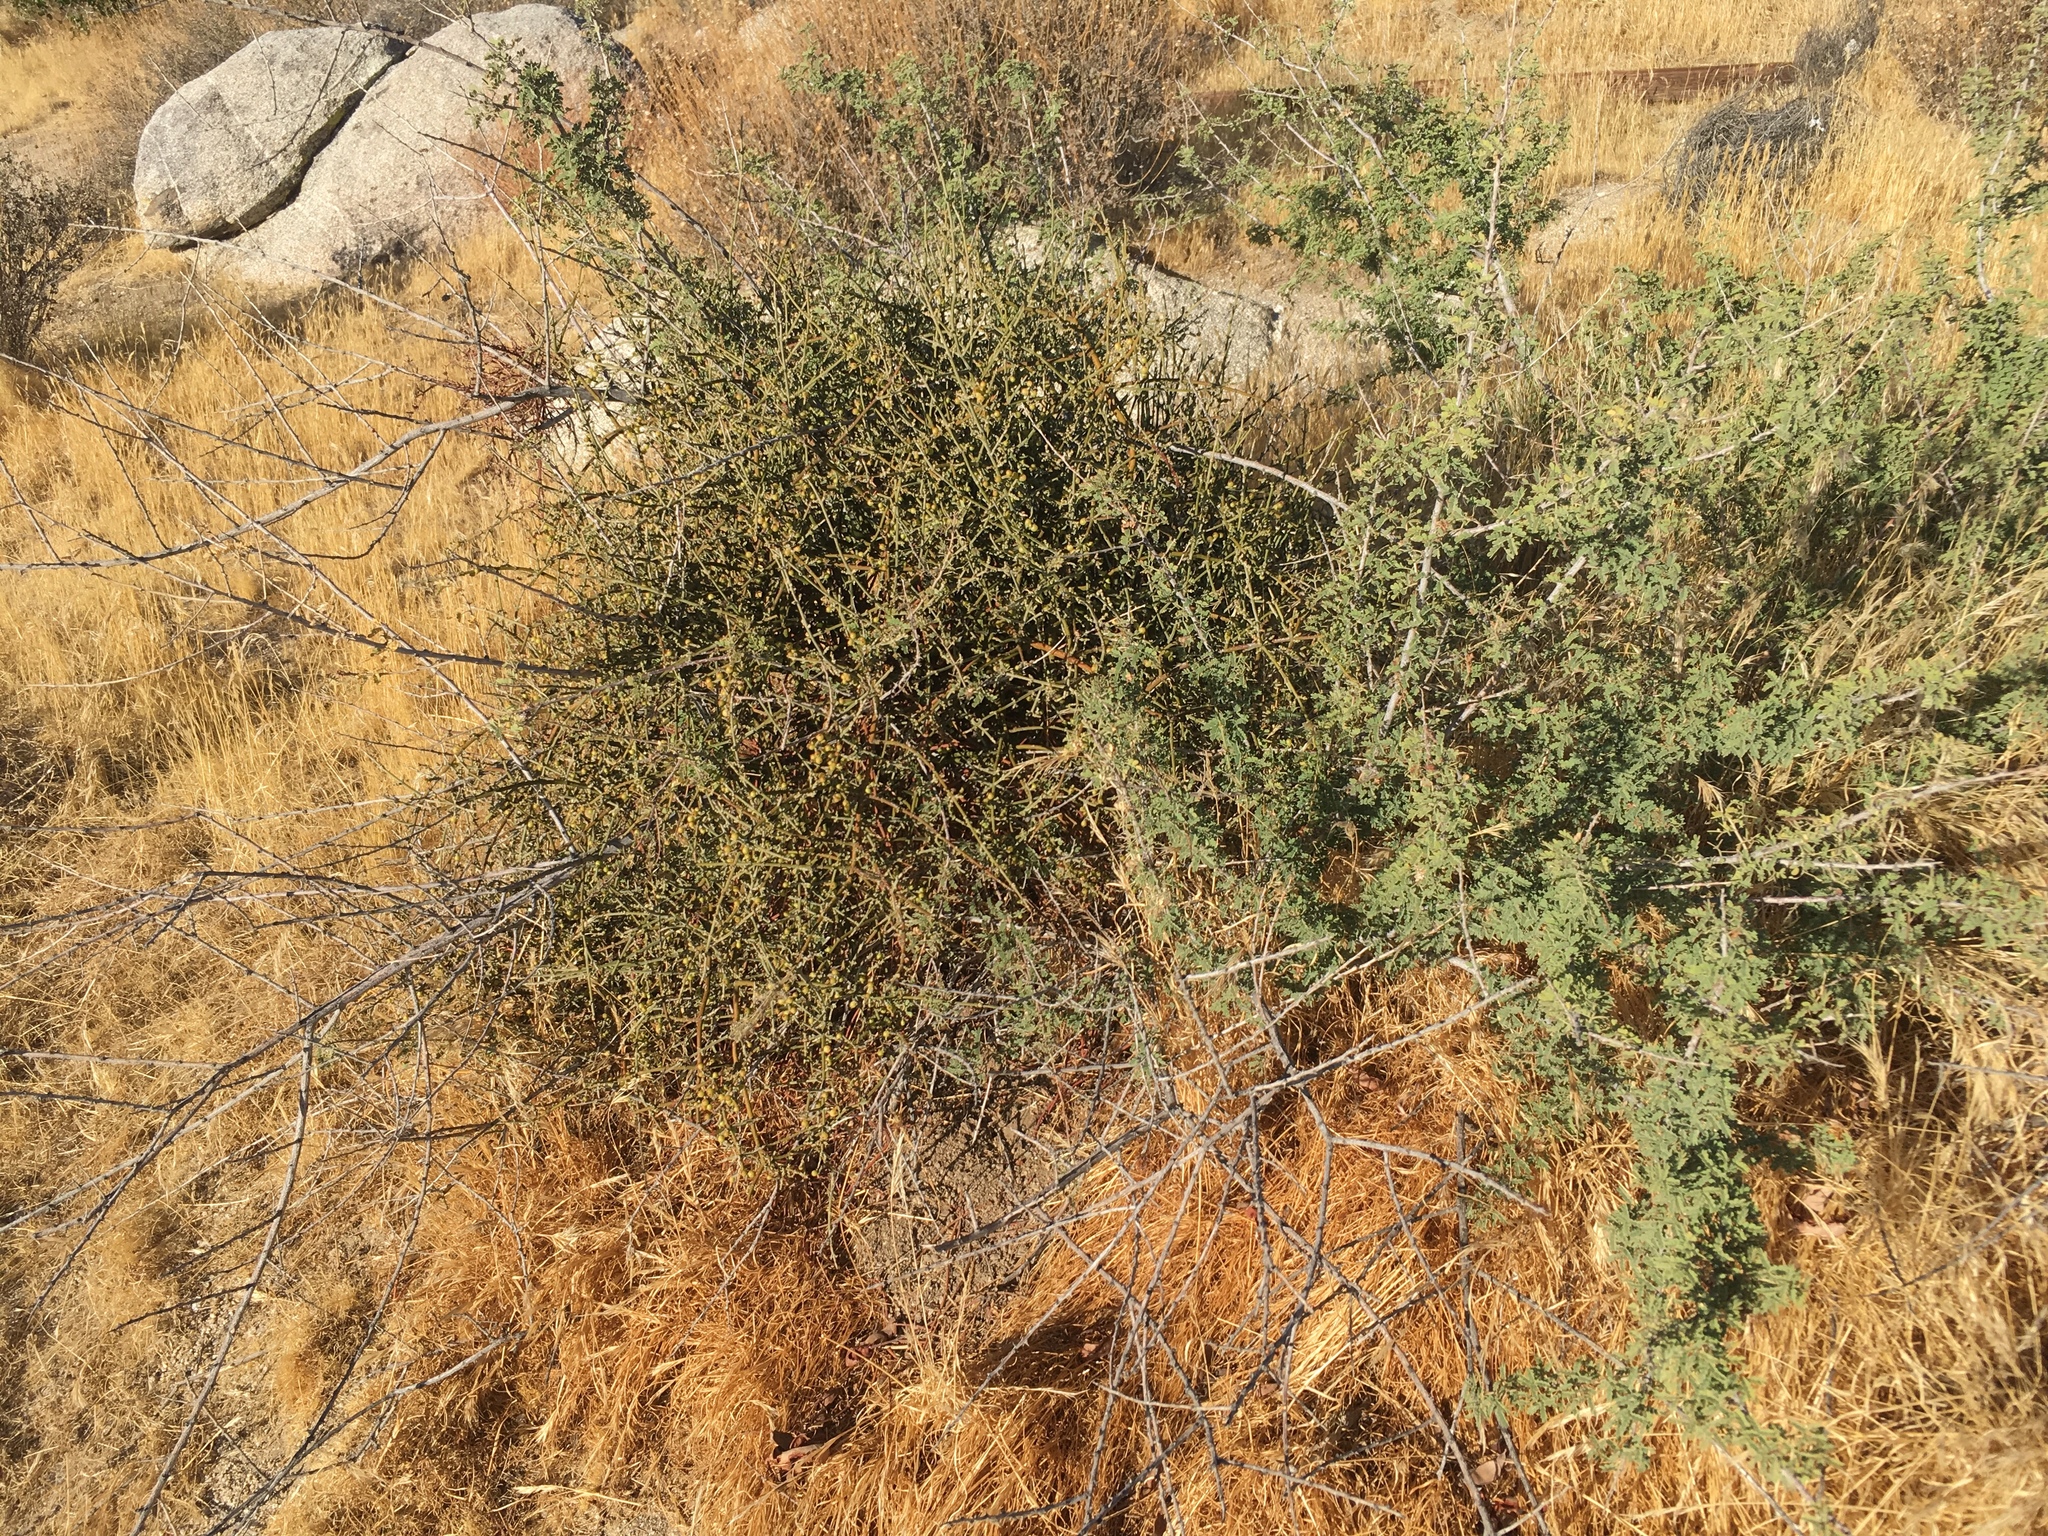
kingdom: Plantae
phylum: Tracheophyta
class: Magnoliopsida
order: Santalales
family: Viscaceae
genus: Phoradendron
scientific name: Phoradendron californicum
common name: Acacia mistletoe
